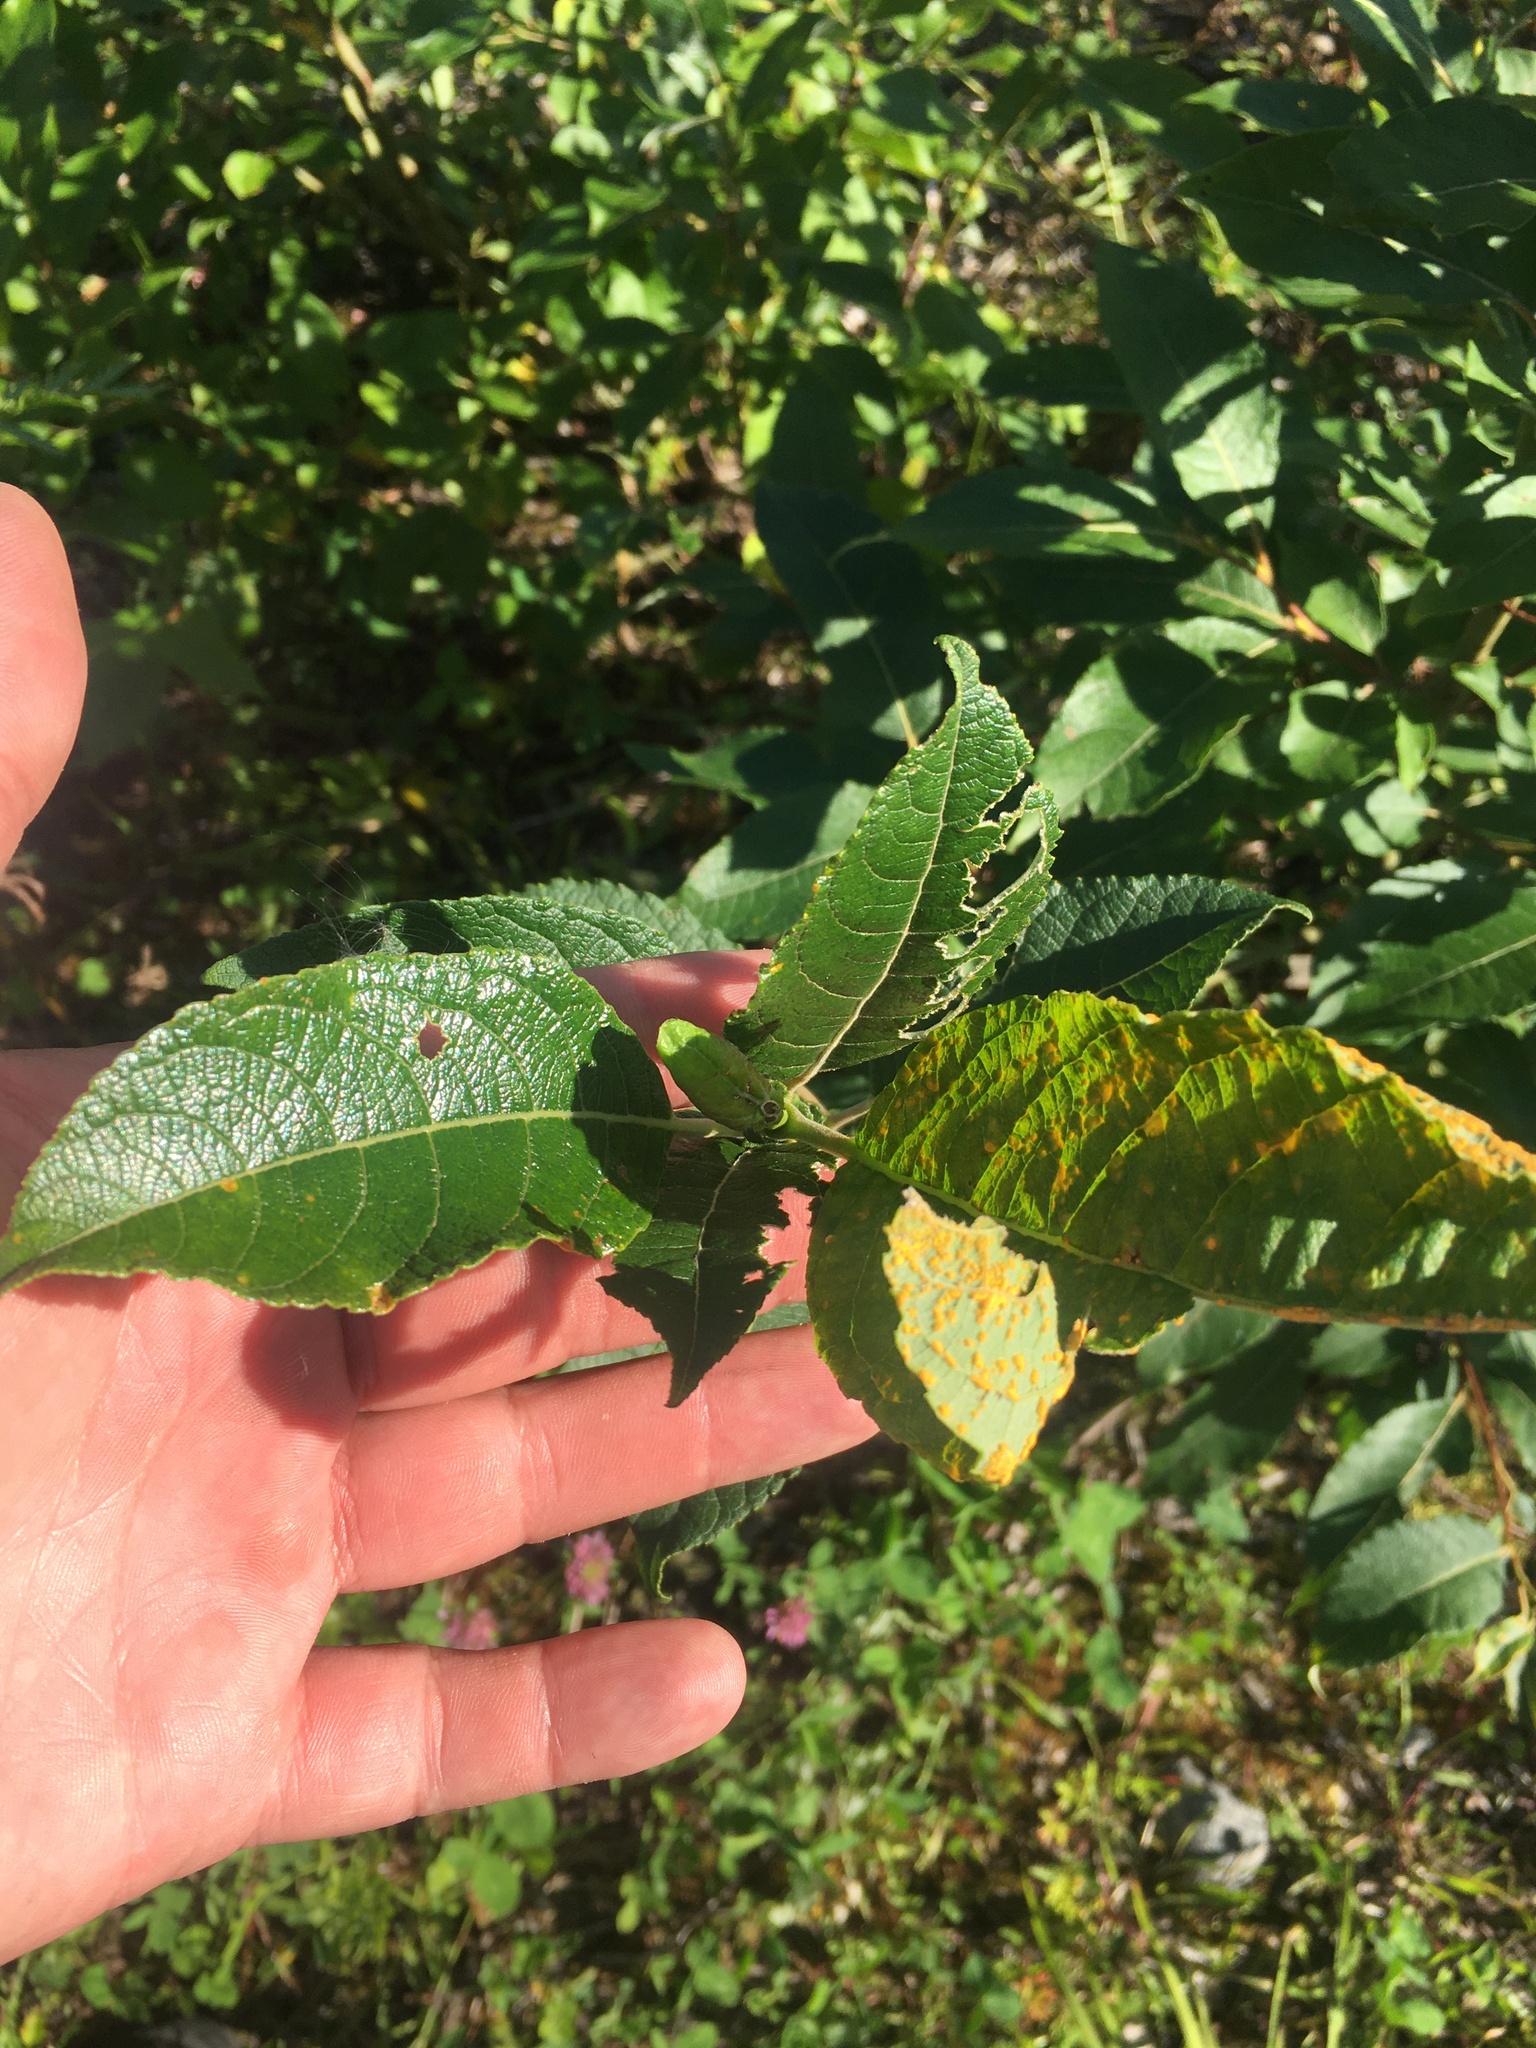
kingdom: Plantae
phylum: Tracheophyta
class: Magnoliopsida
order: Malpighiales
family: Salicaceae
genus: Salix
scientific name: Salix caprea
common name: Goat willow
